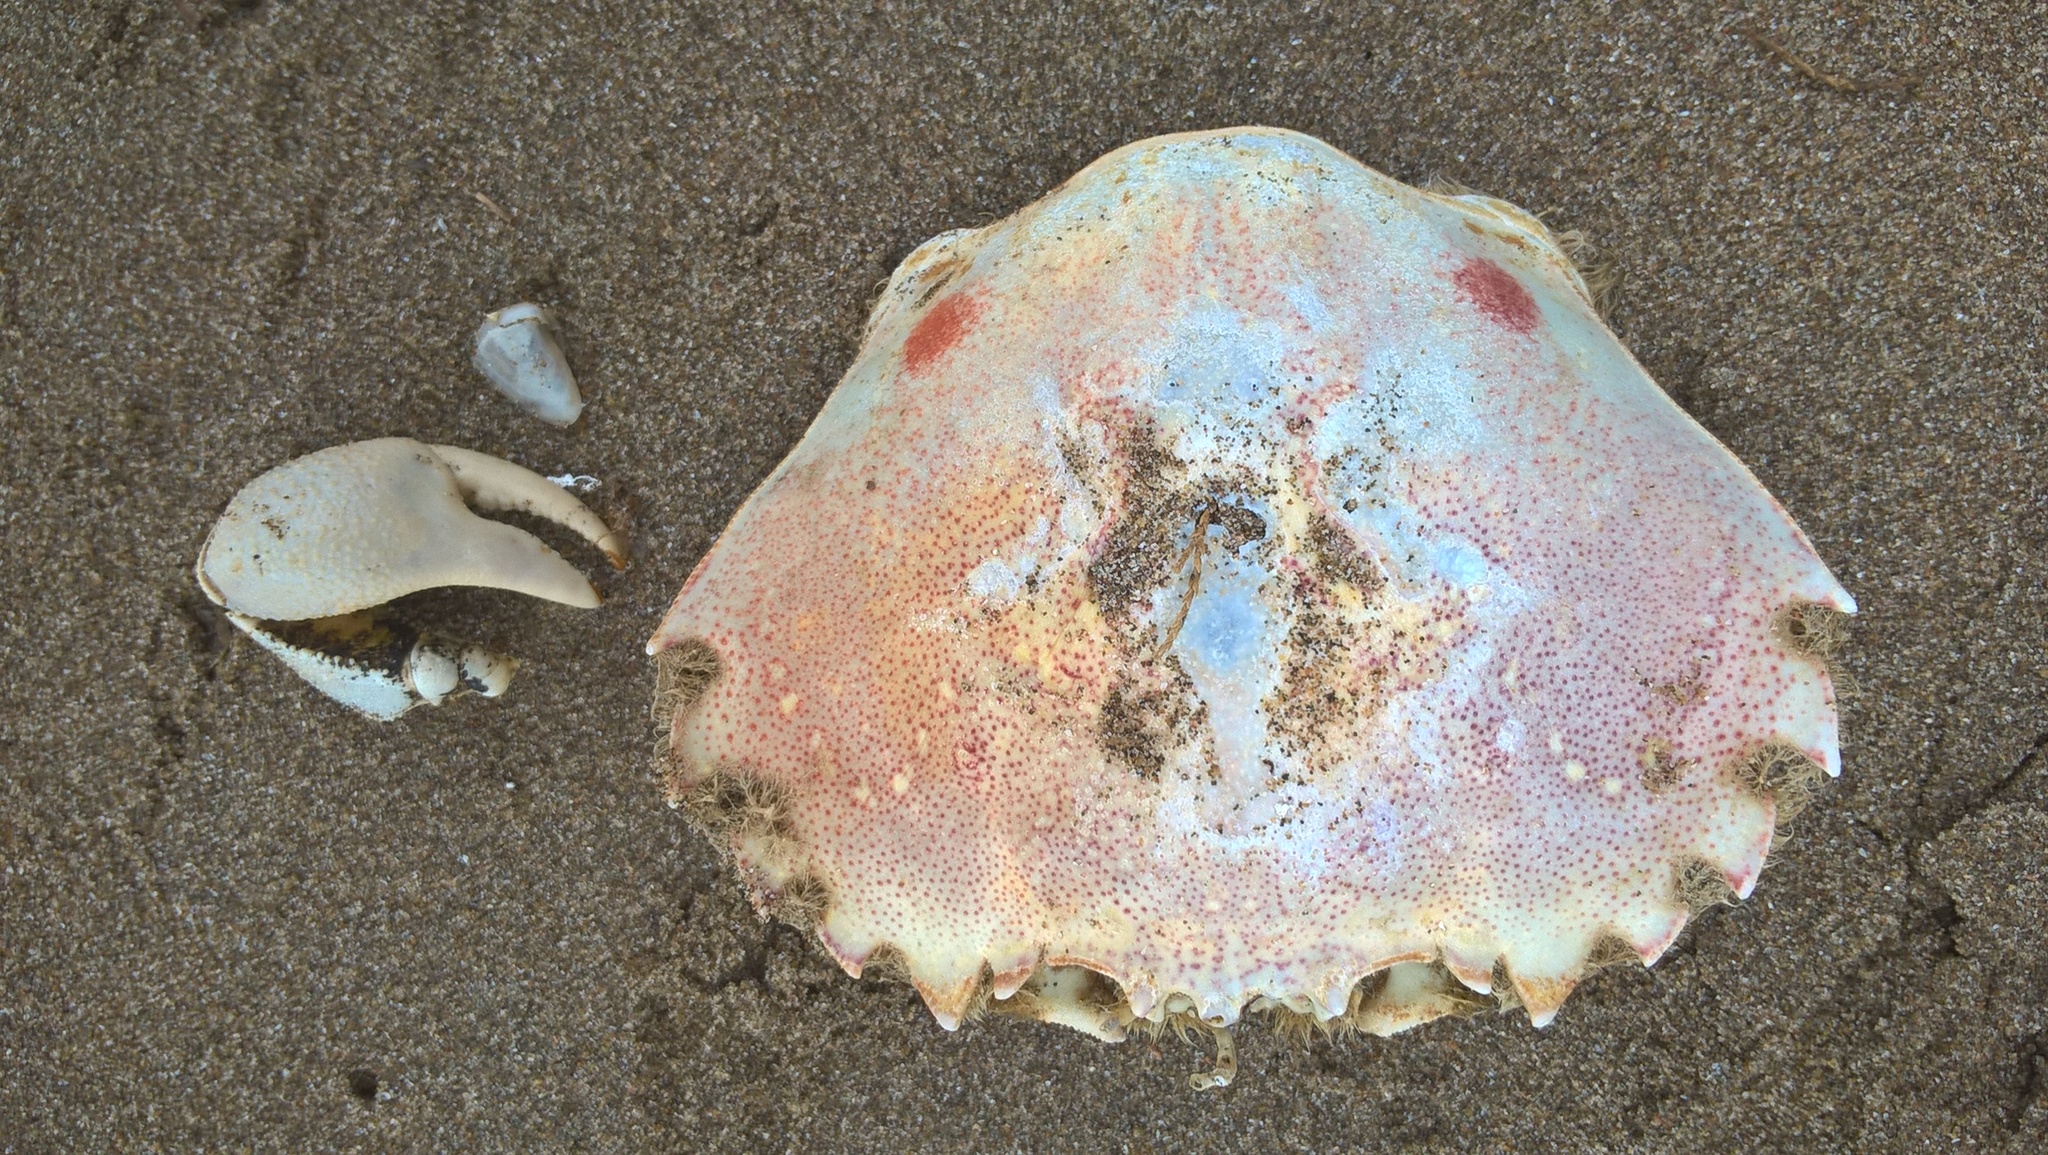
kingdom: Animalia
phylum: Arthropoda
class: Malacostraca
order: Decapoda
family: Ovalipidae
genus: Ovalipes
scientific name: Ovalipes trimaculatus
